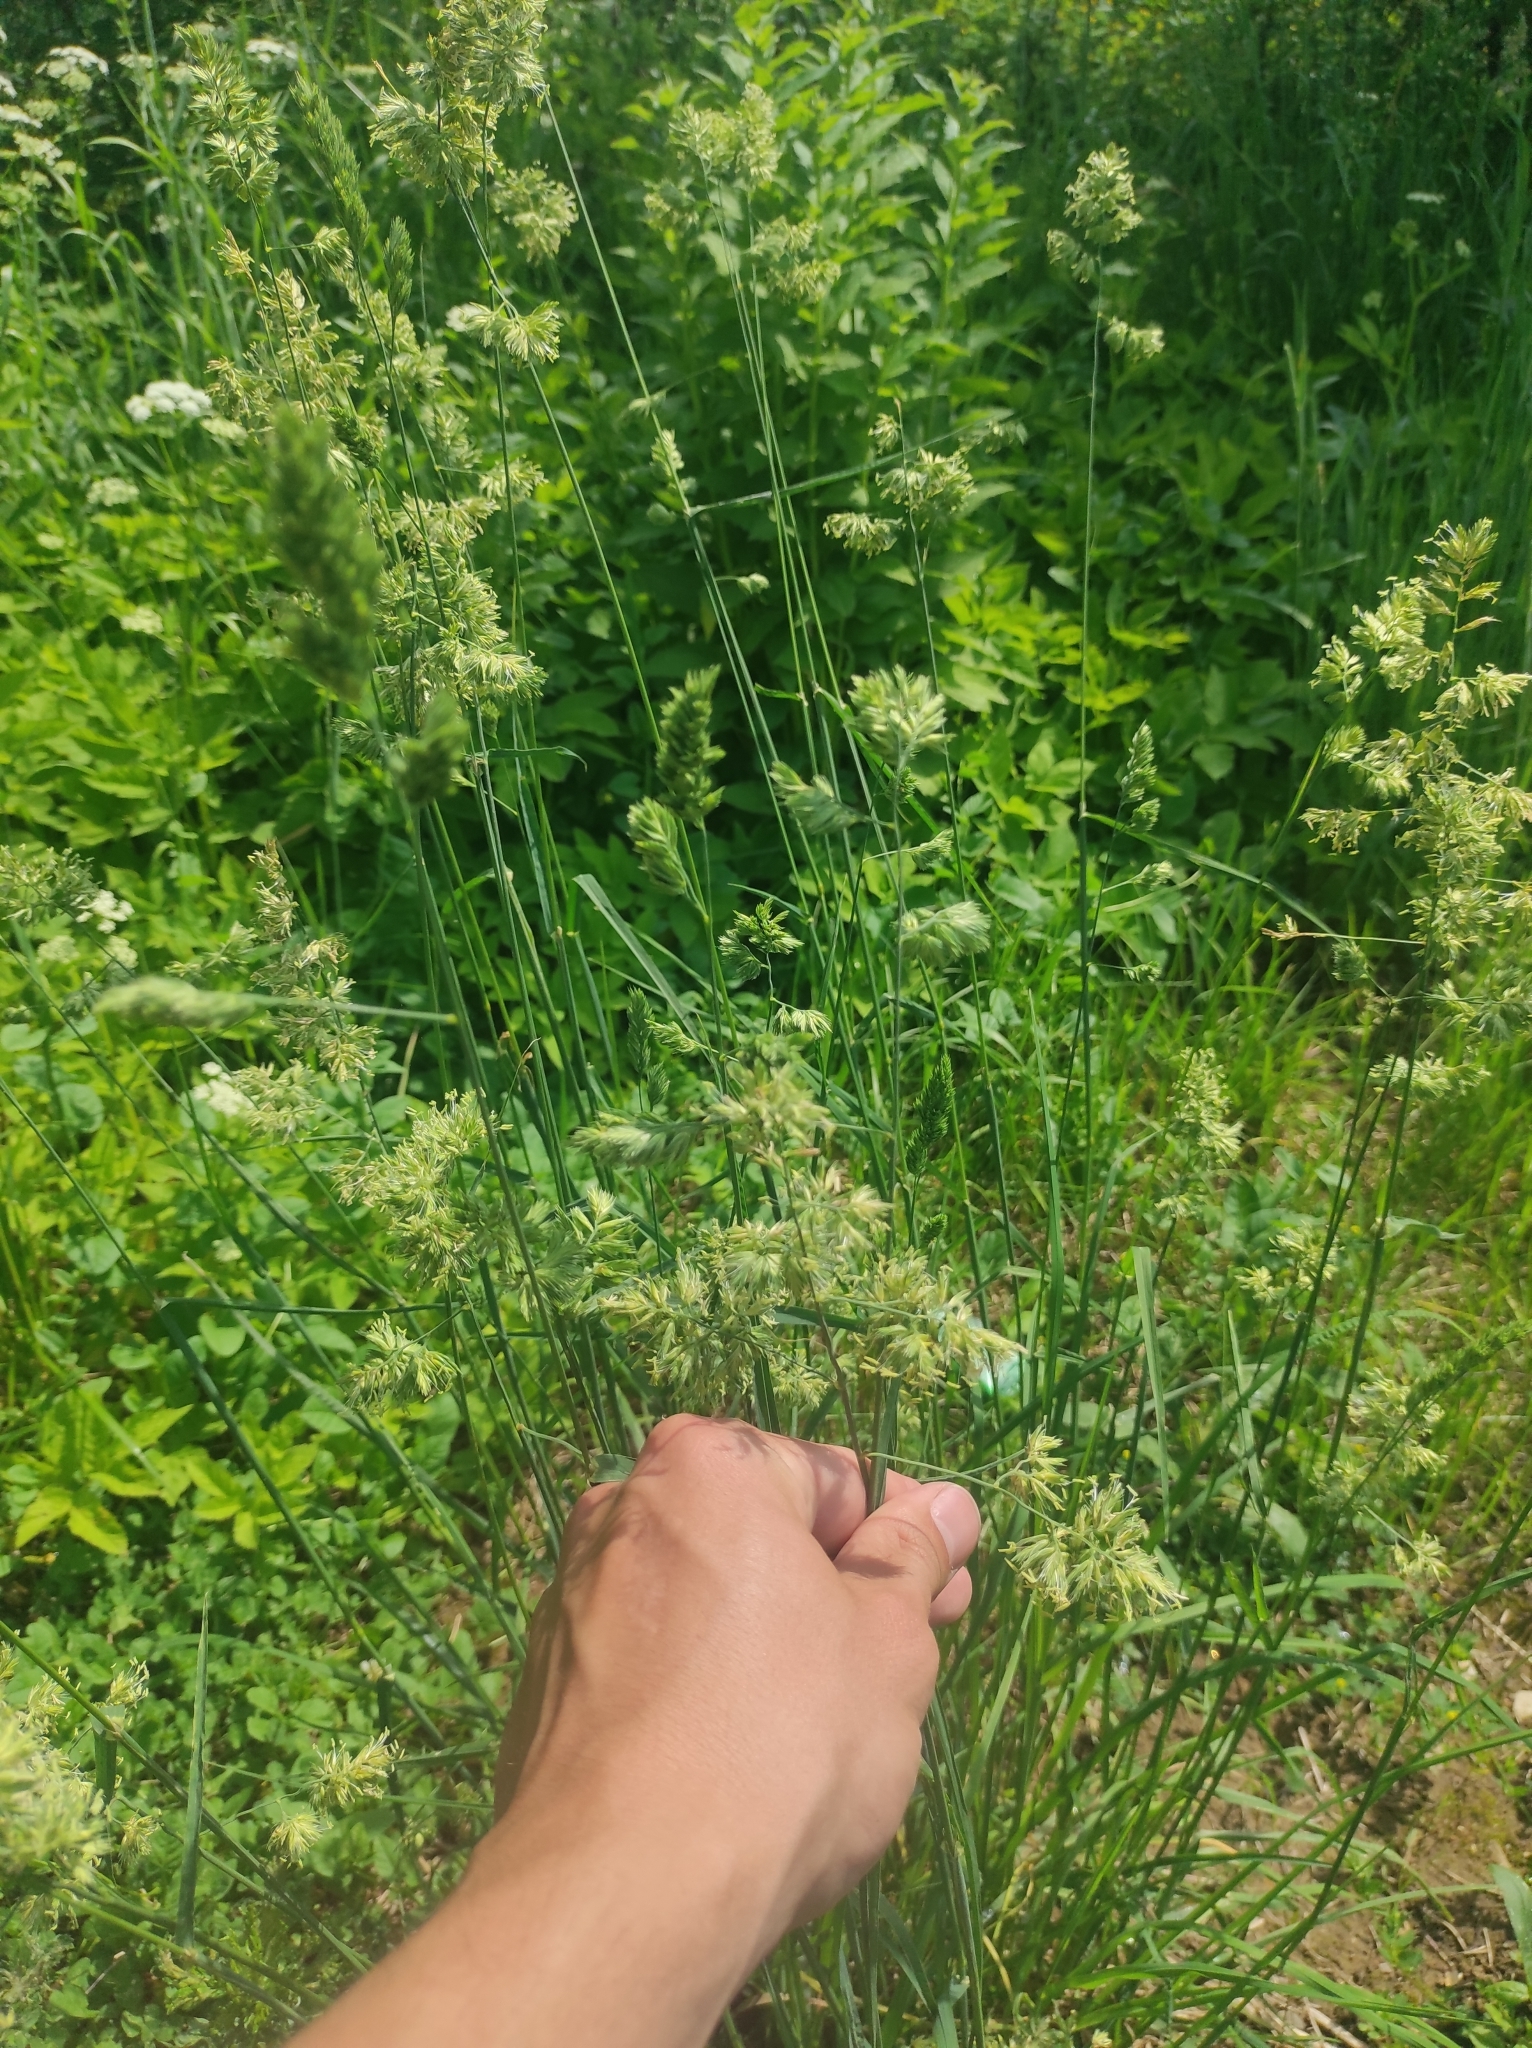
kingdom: Plantae
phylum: Tracheophyta
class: Liliopsida
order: Poales
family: Poaceae
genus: Dactylis
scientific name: Dactylis glomerata
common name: Orchardgrass
